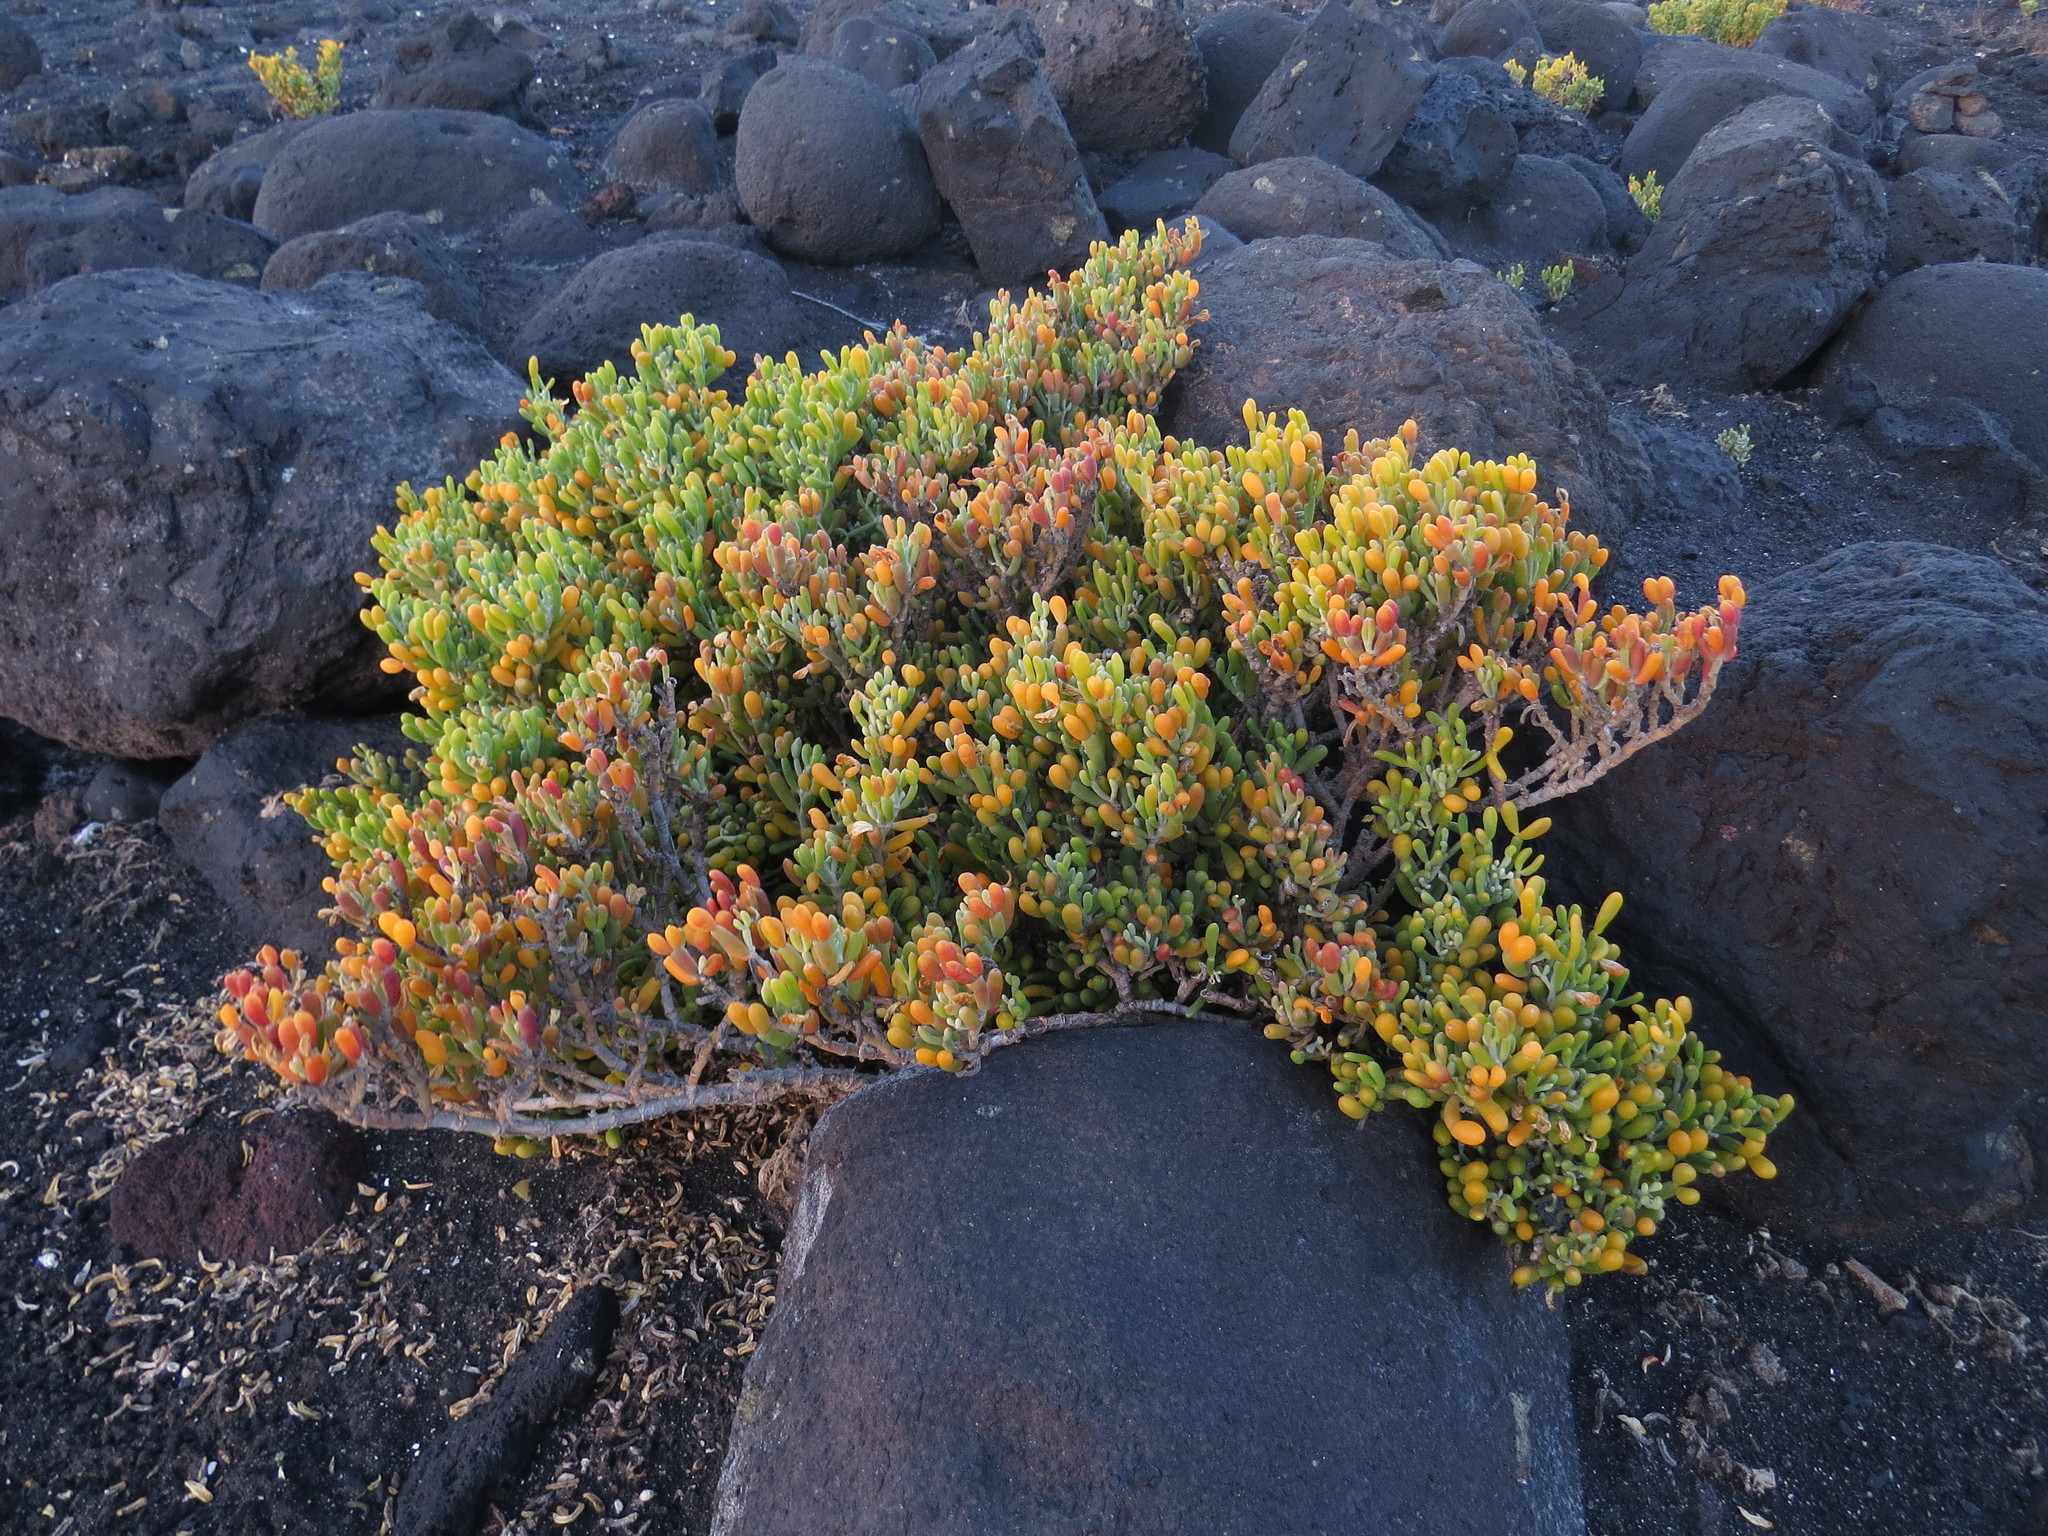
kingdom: Plantae
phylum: Tracheophyta
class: Magnoliopsida
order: Zygophyllales
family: Zygophyllaceae
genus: Tetraena
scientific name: Tetraena fontanesii
